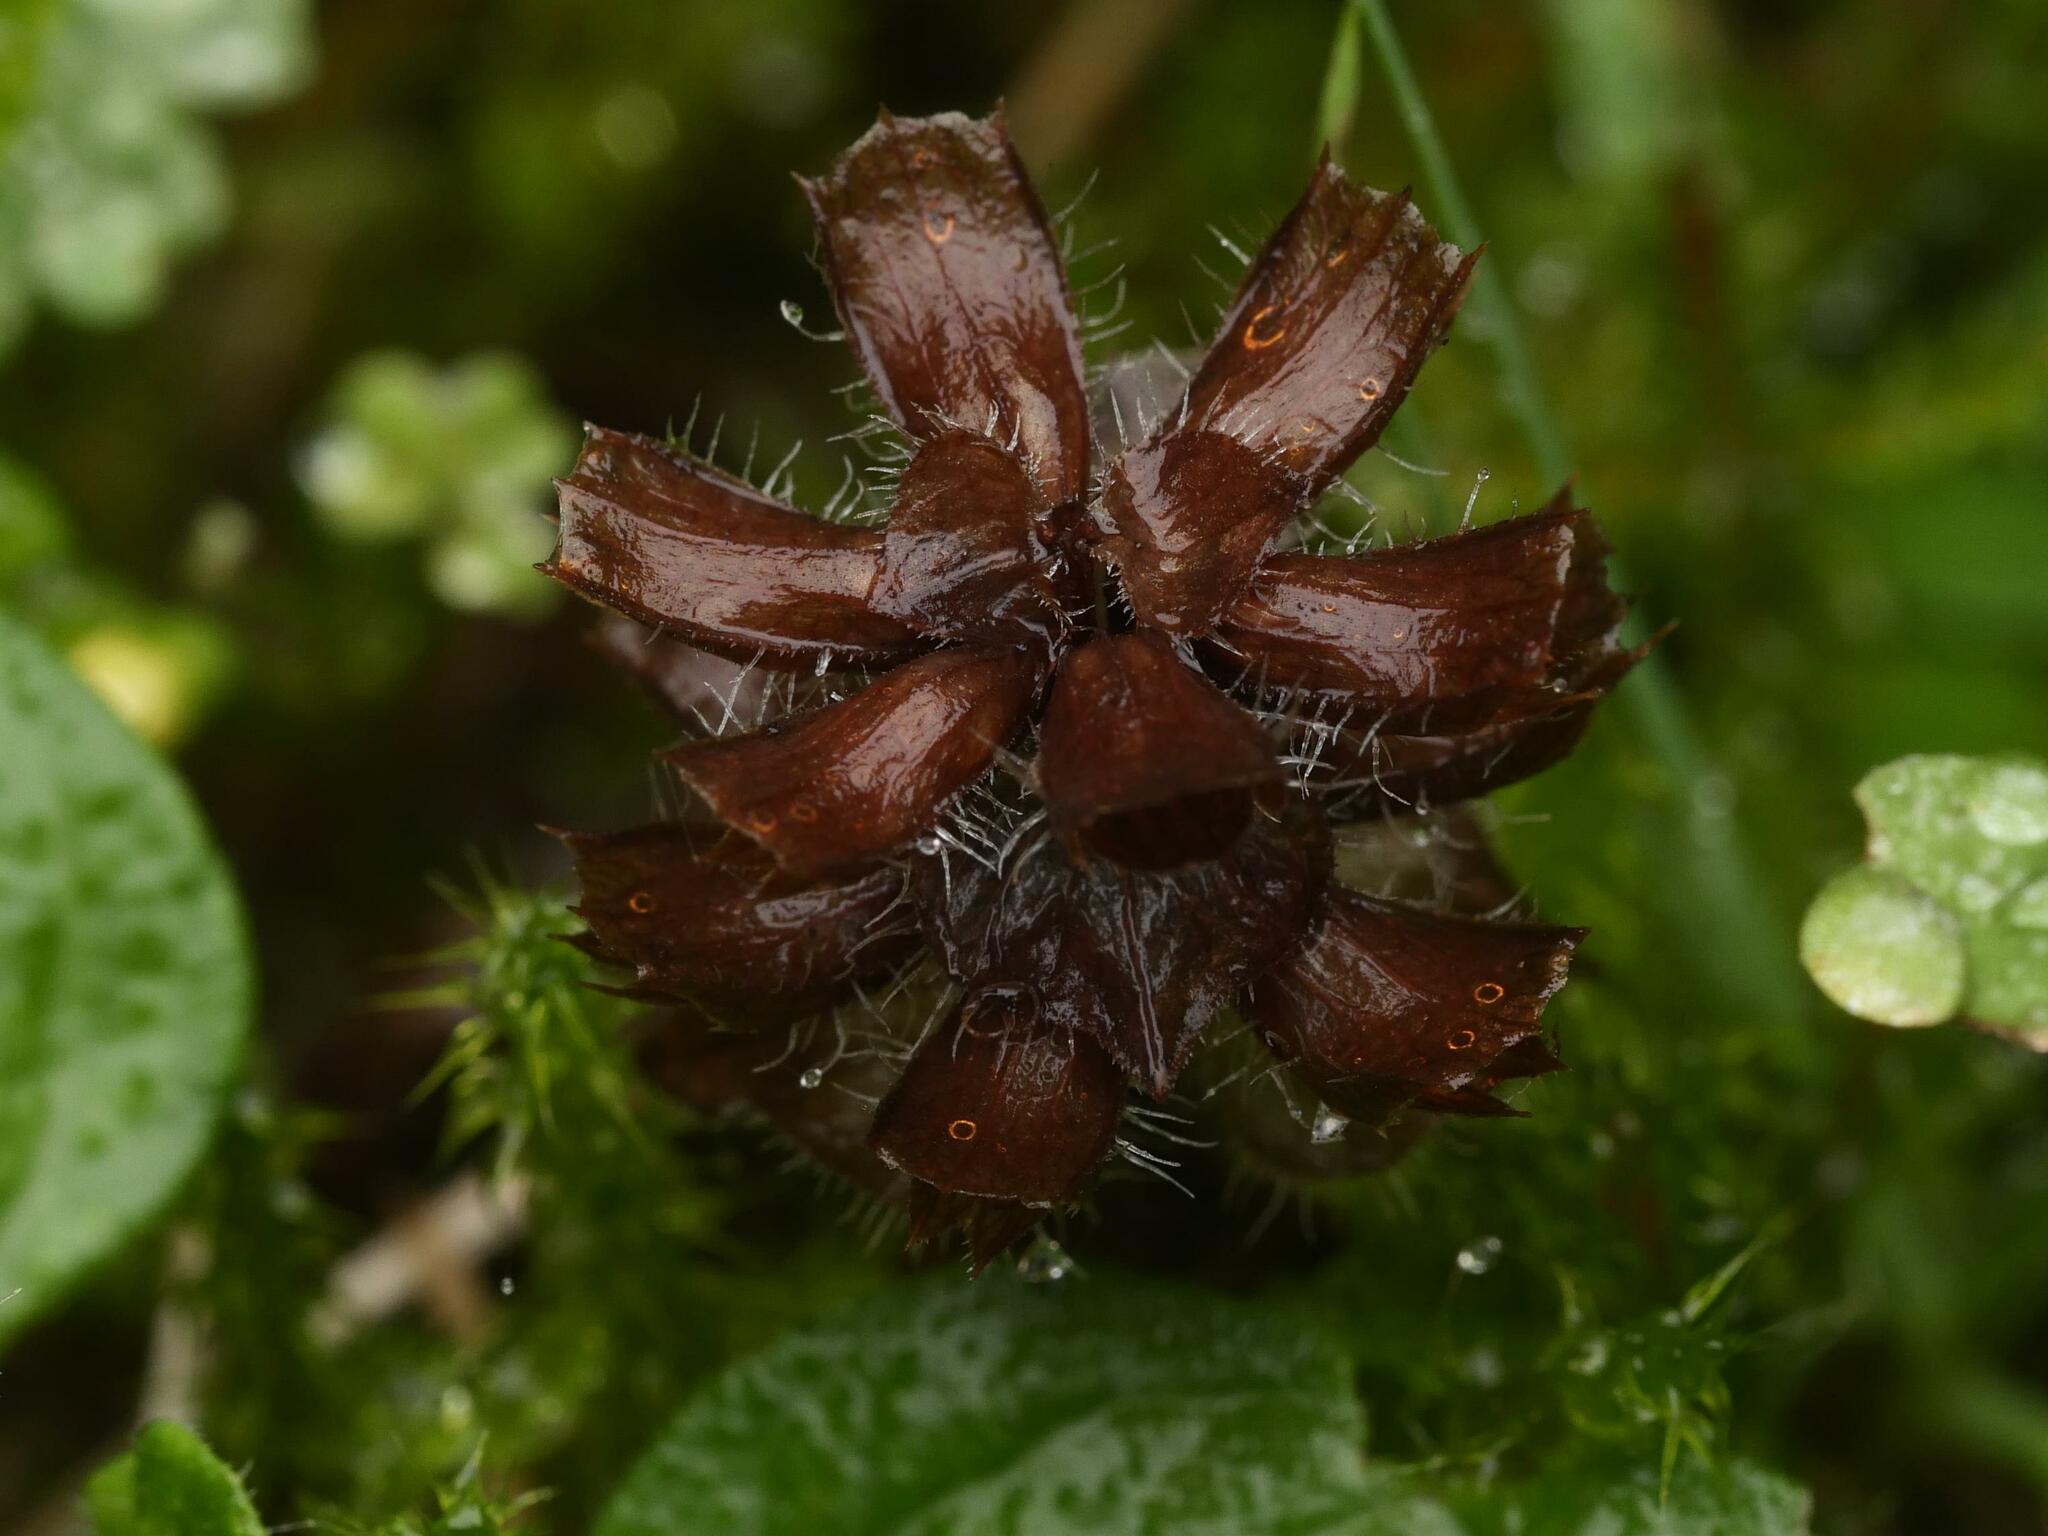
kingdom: Plantae
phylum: Tracheophyta
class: Magnoliopsida
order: Lamiales
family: Lamiaceae
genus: Prunella
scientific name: Prunella vulgaris
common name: Heal-all
